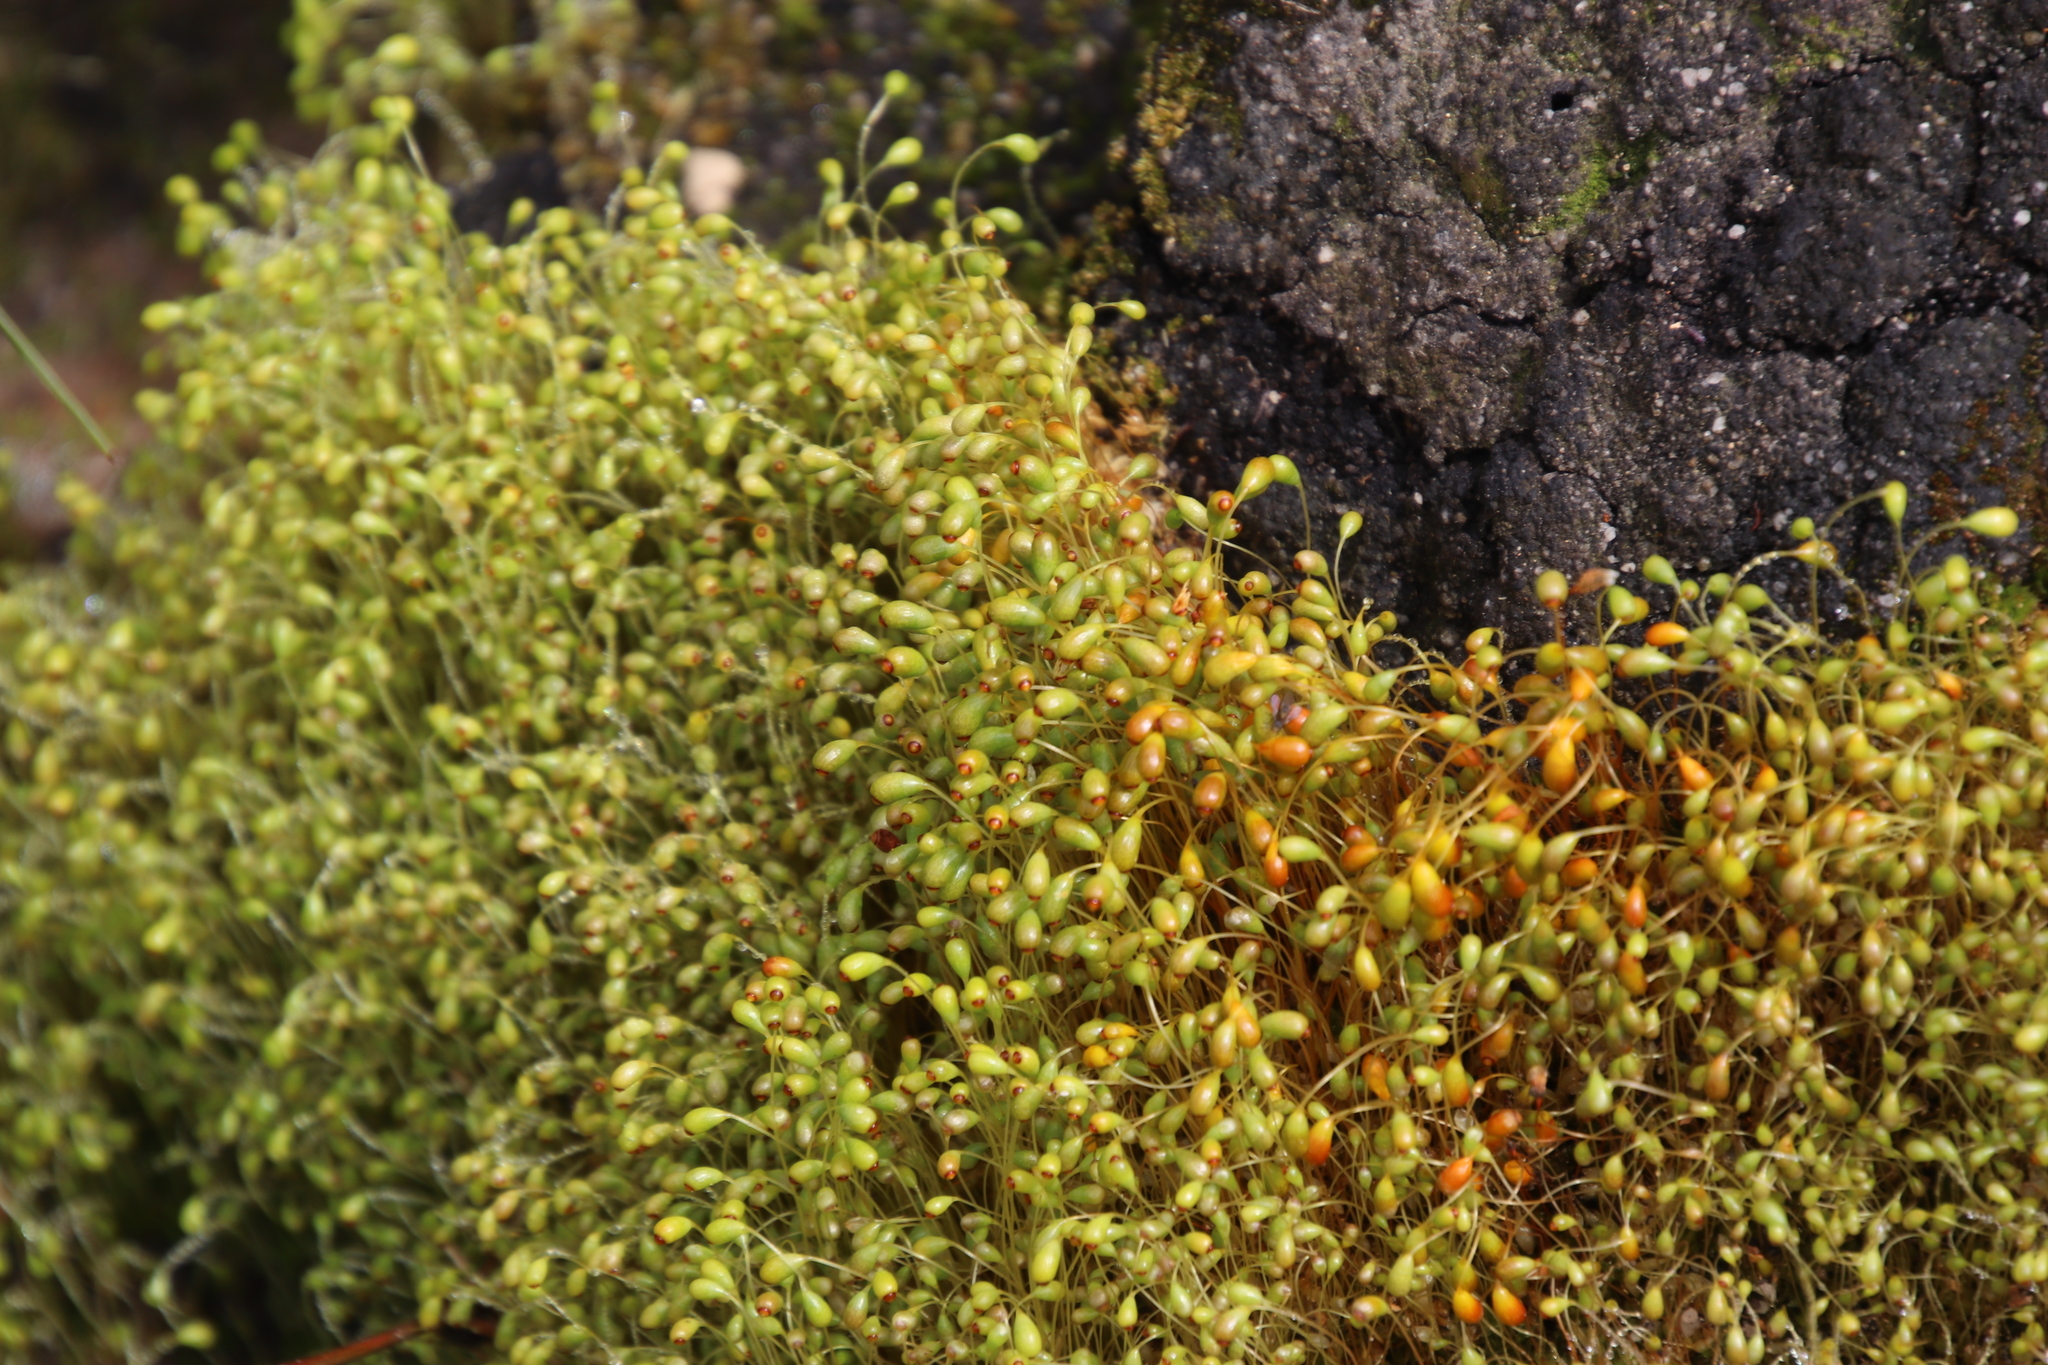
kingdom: Plantae
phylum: Bryophyta
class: Bryopsida
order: Funariales
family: Funariaceae
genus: Funaria
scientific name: Funaria hygrometrica
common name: Common cord moss
